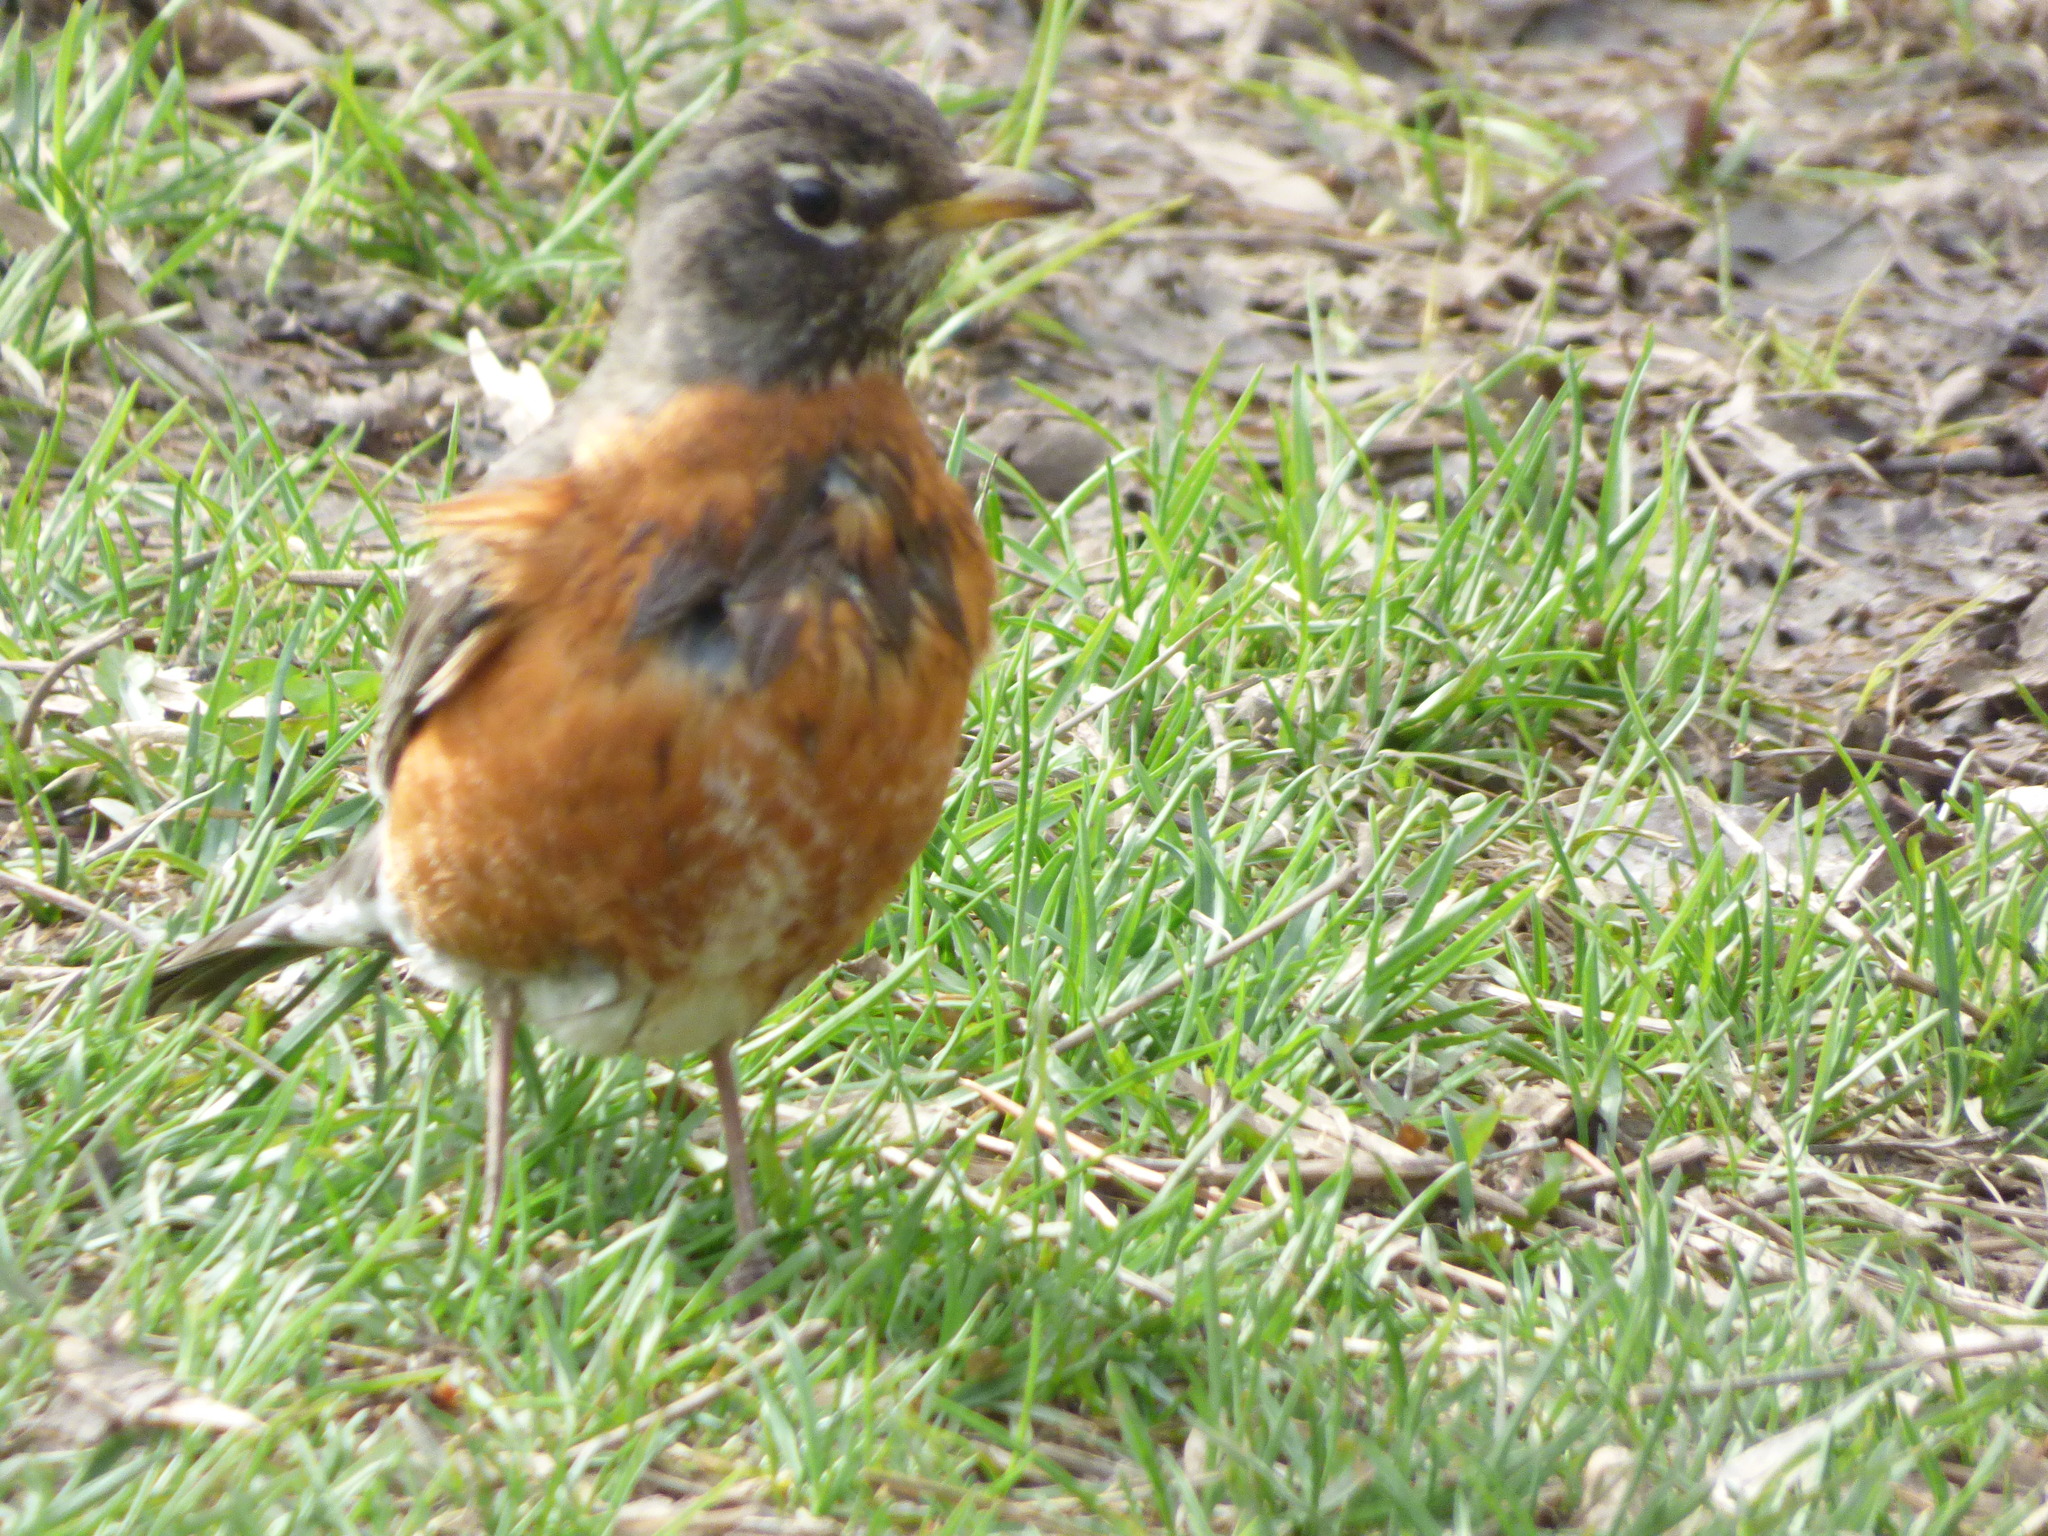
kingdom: Animalia
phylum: Chordata
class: Aves
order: Passeriformes
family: Turdidae
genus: Turdus
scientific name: Turdus migratorius
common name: American robin
